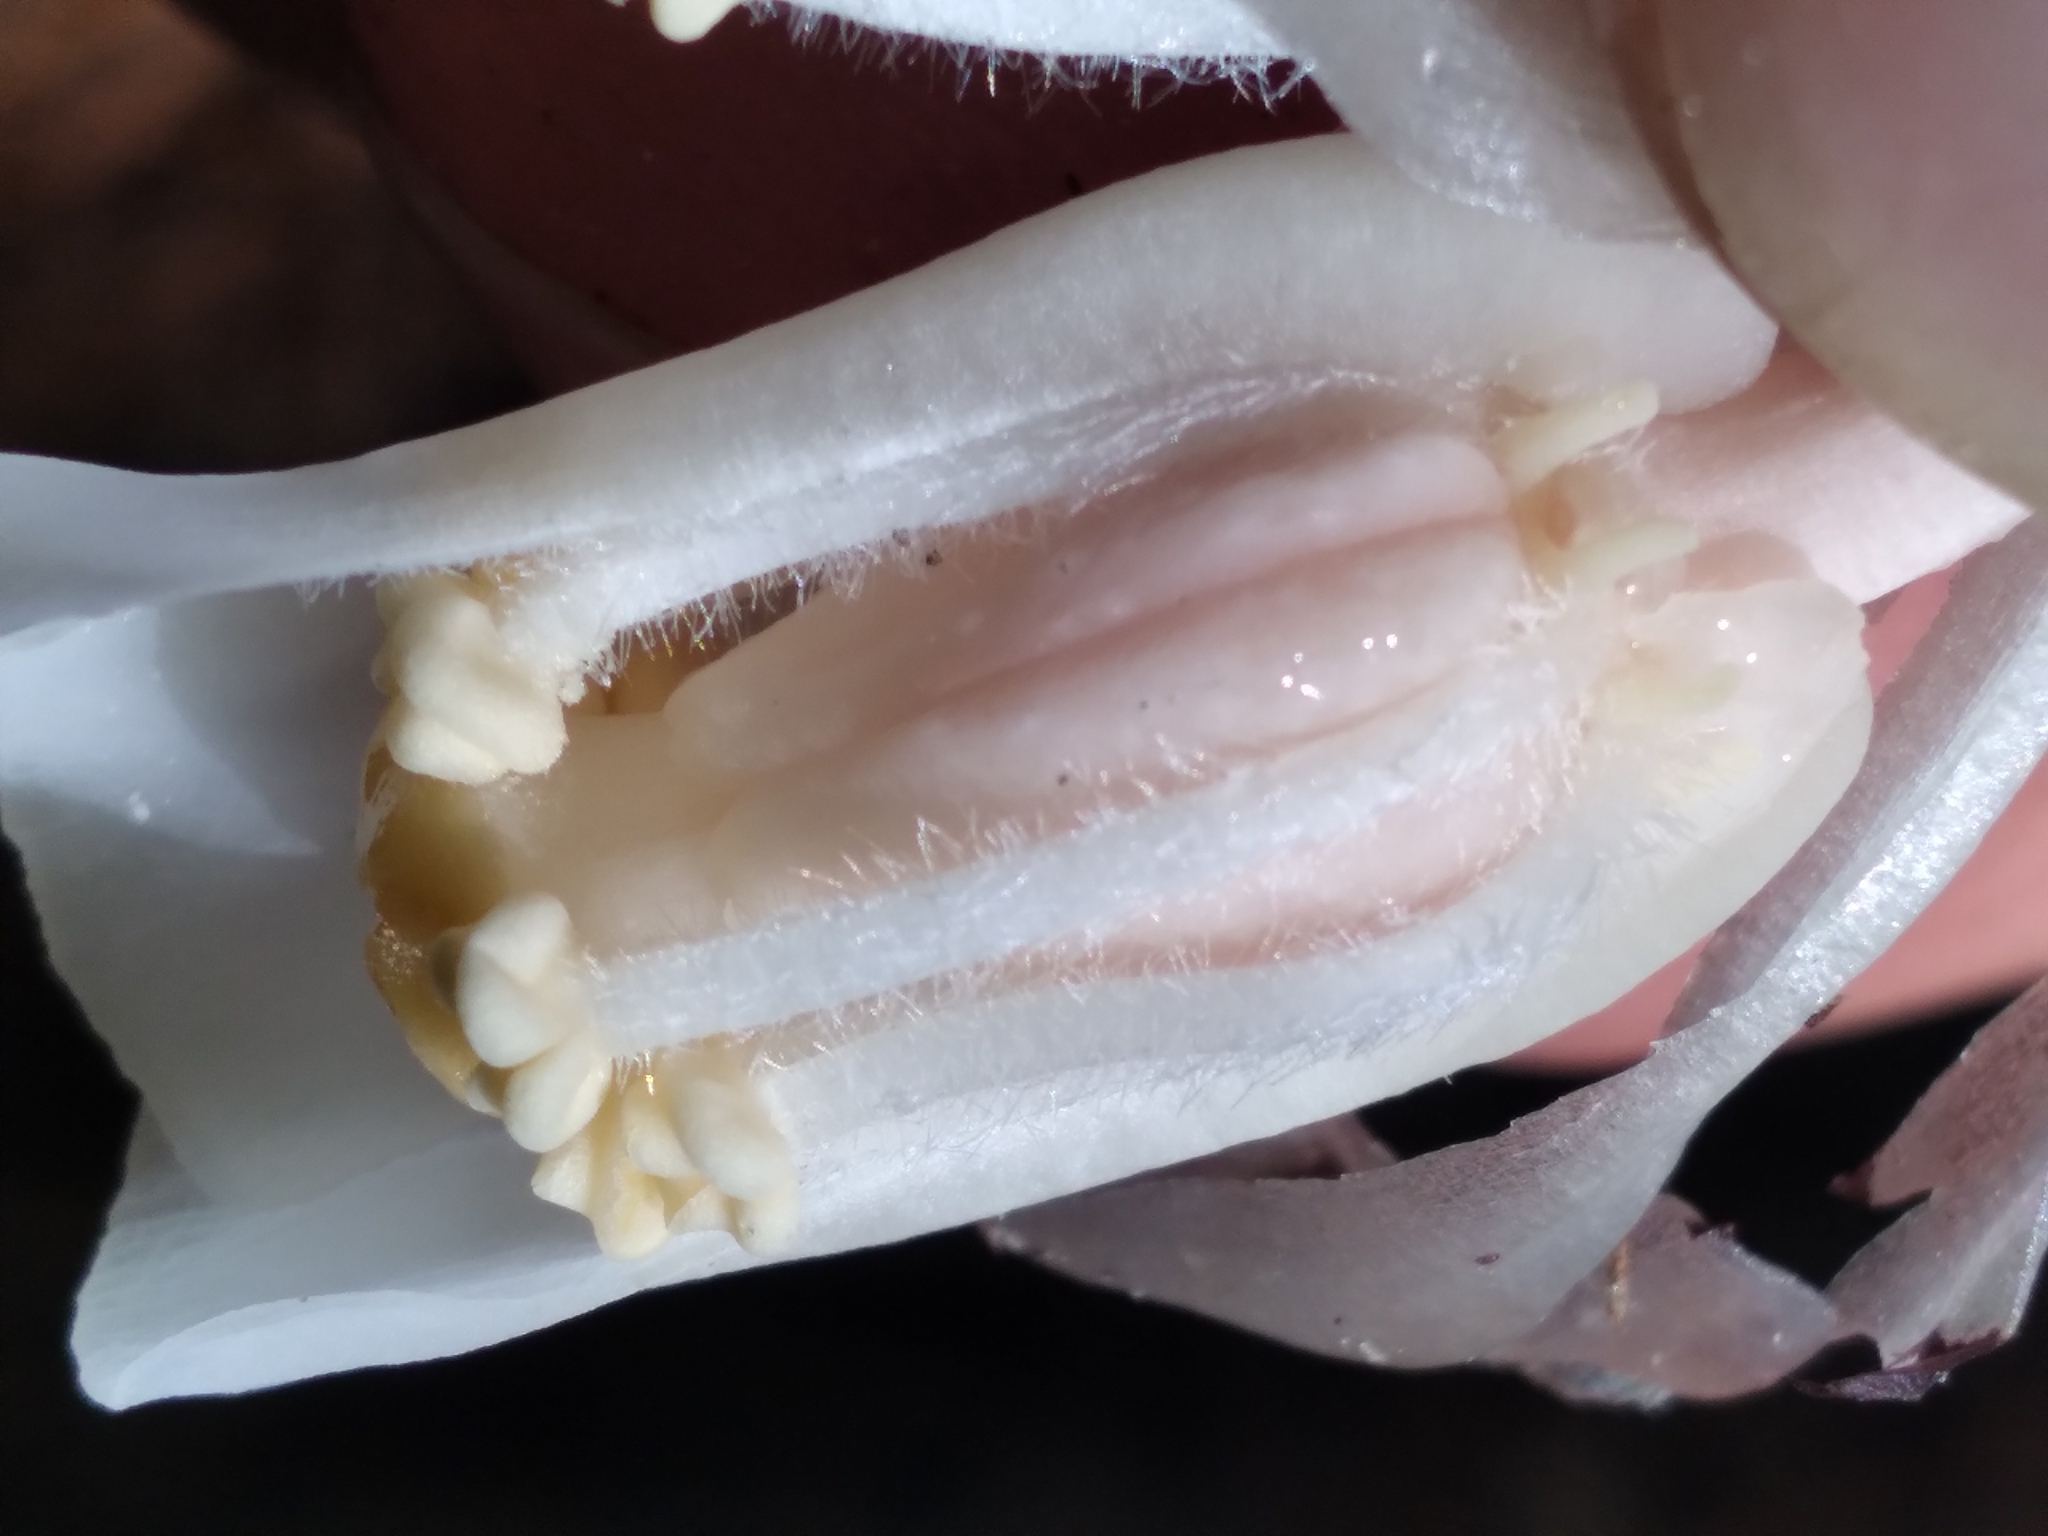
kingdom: Plantae
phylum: Tracheophyta
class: Magnoliopsida
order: Ericales
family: Ericaceae
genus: Monotropa
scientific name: Monotropa uniflora
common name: Convulsion root
